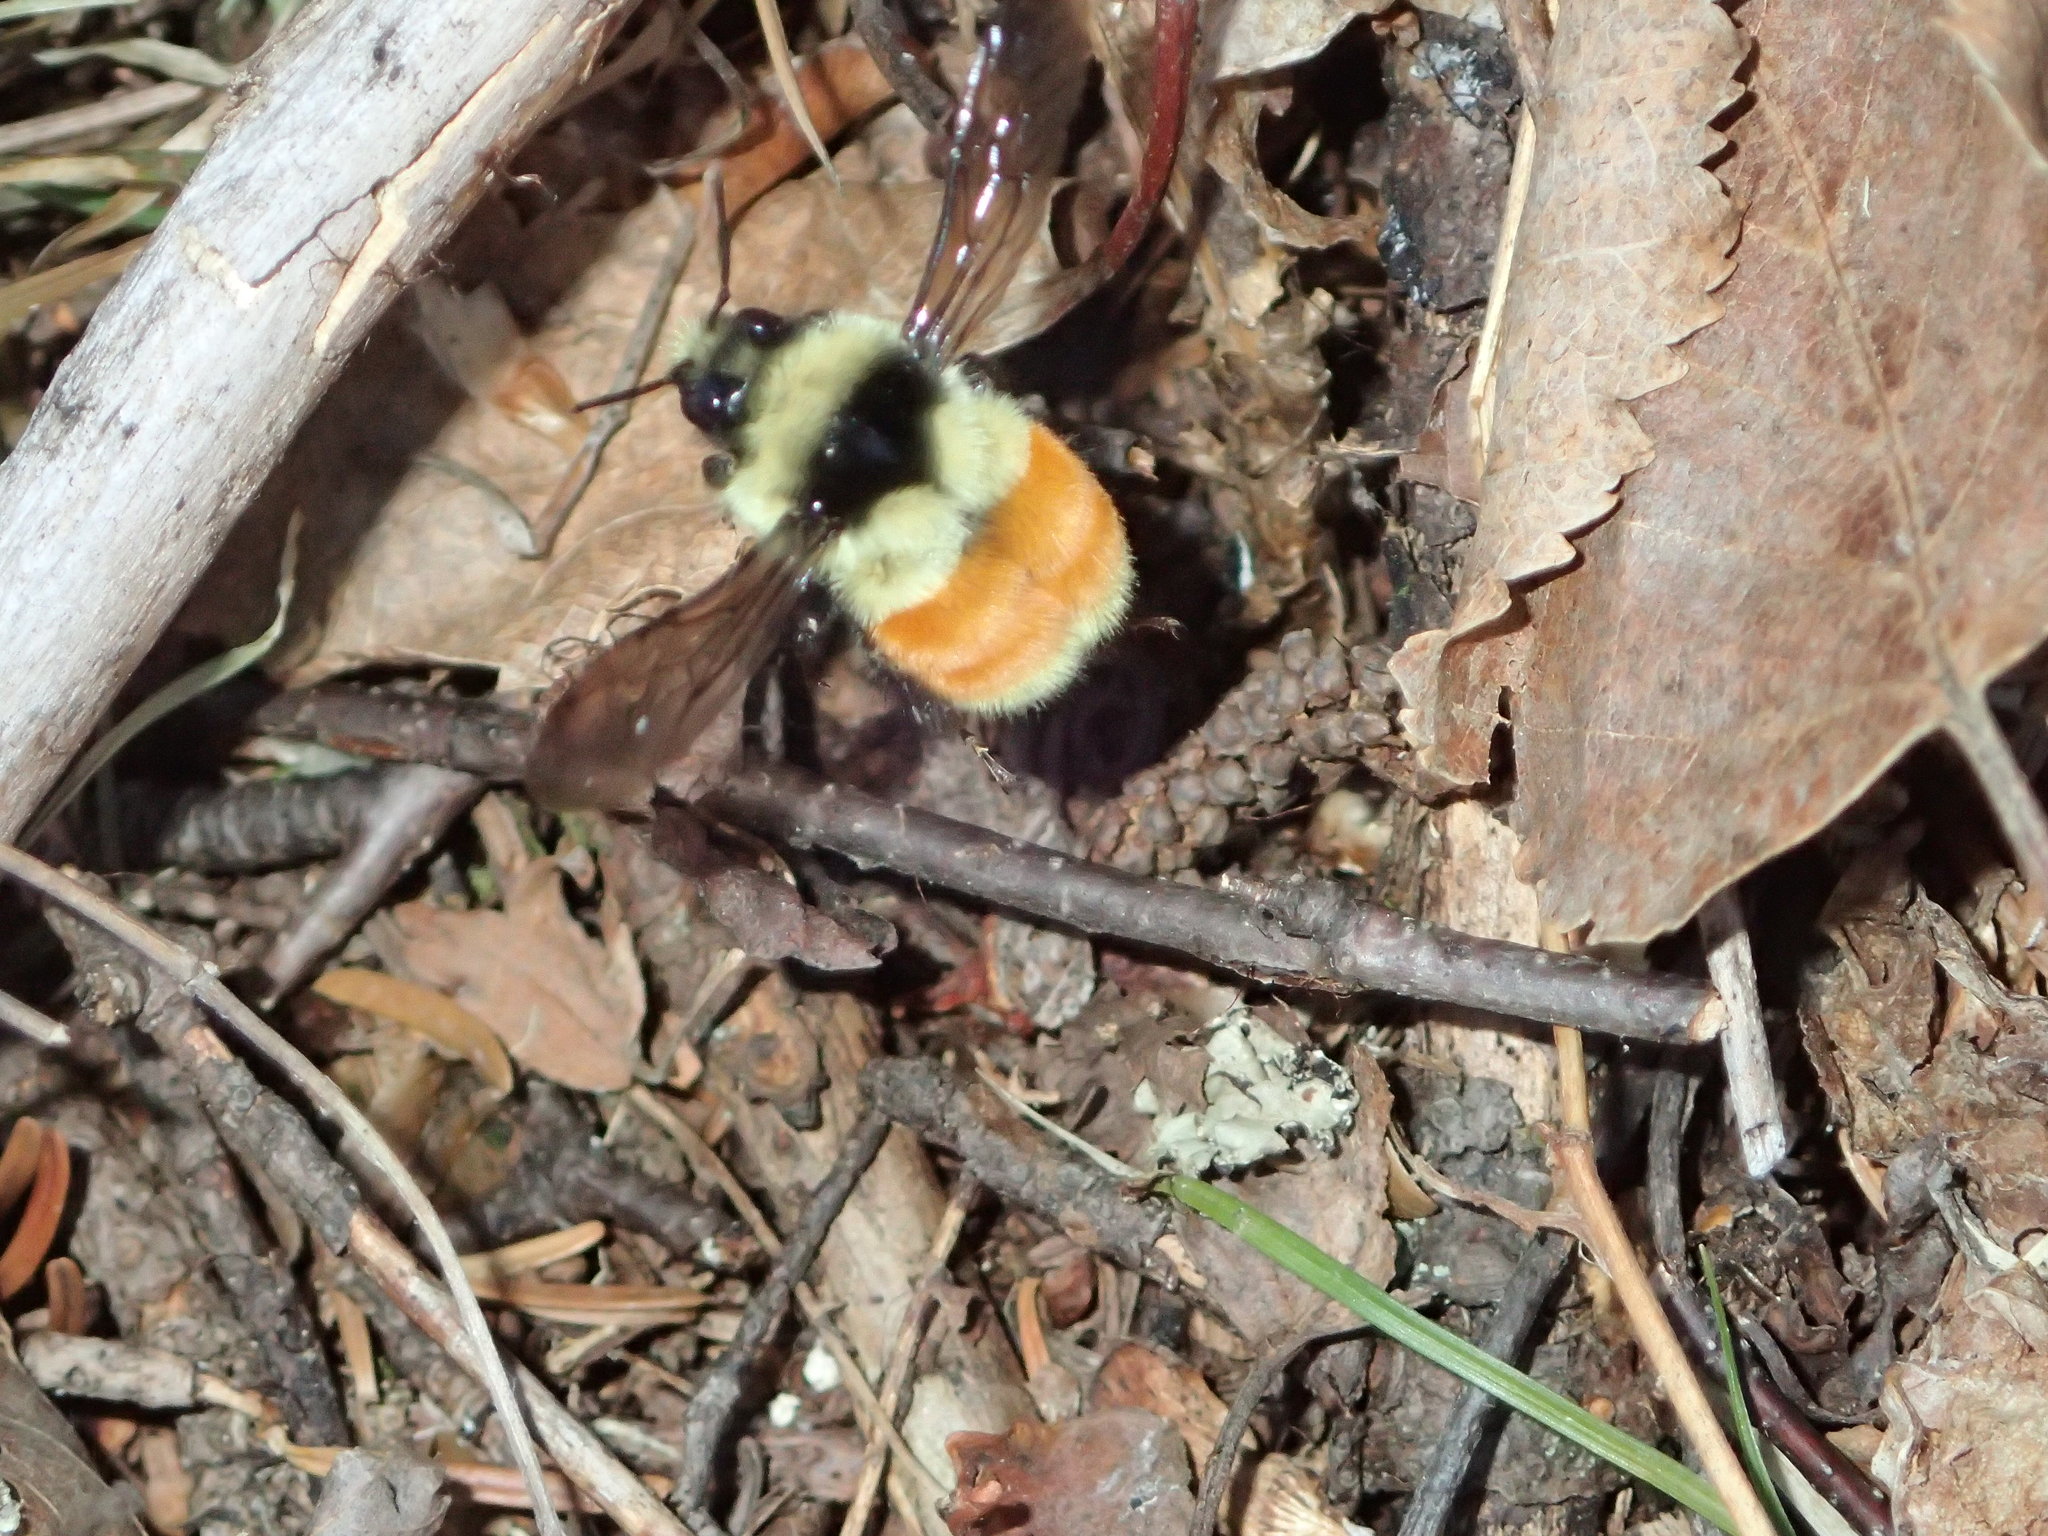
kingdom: Animalia
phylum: Arthropoda
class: Insecta
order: Hymenoptera
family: Apidae
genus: Bombus
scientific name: Bombus ternarius
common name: Tri-colored bumble bee
